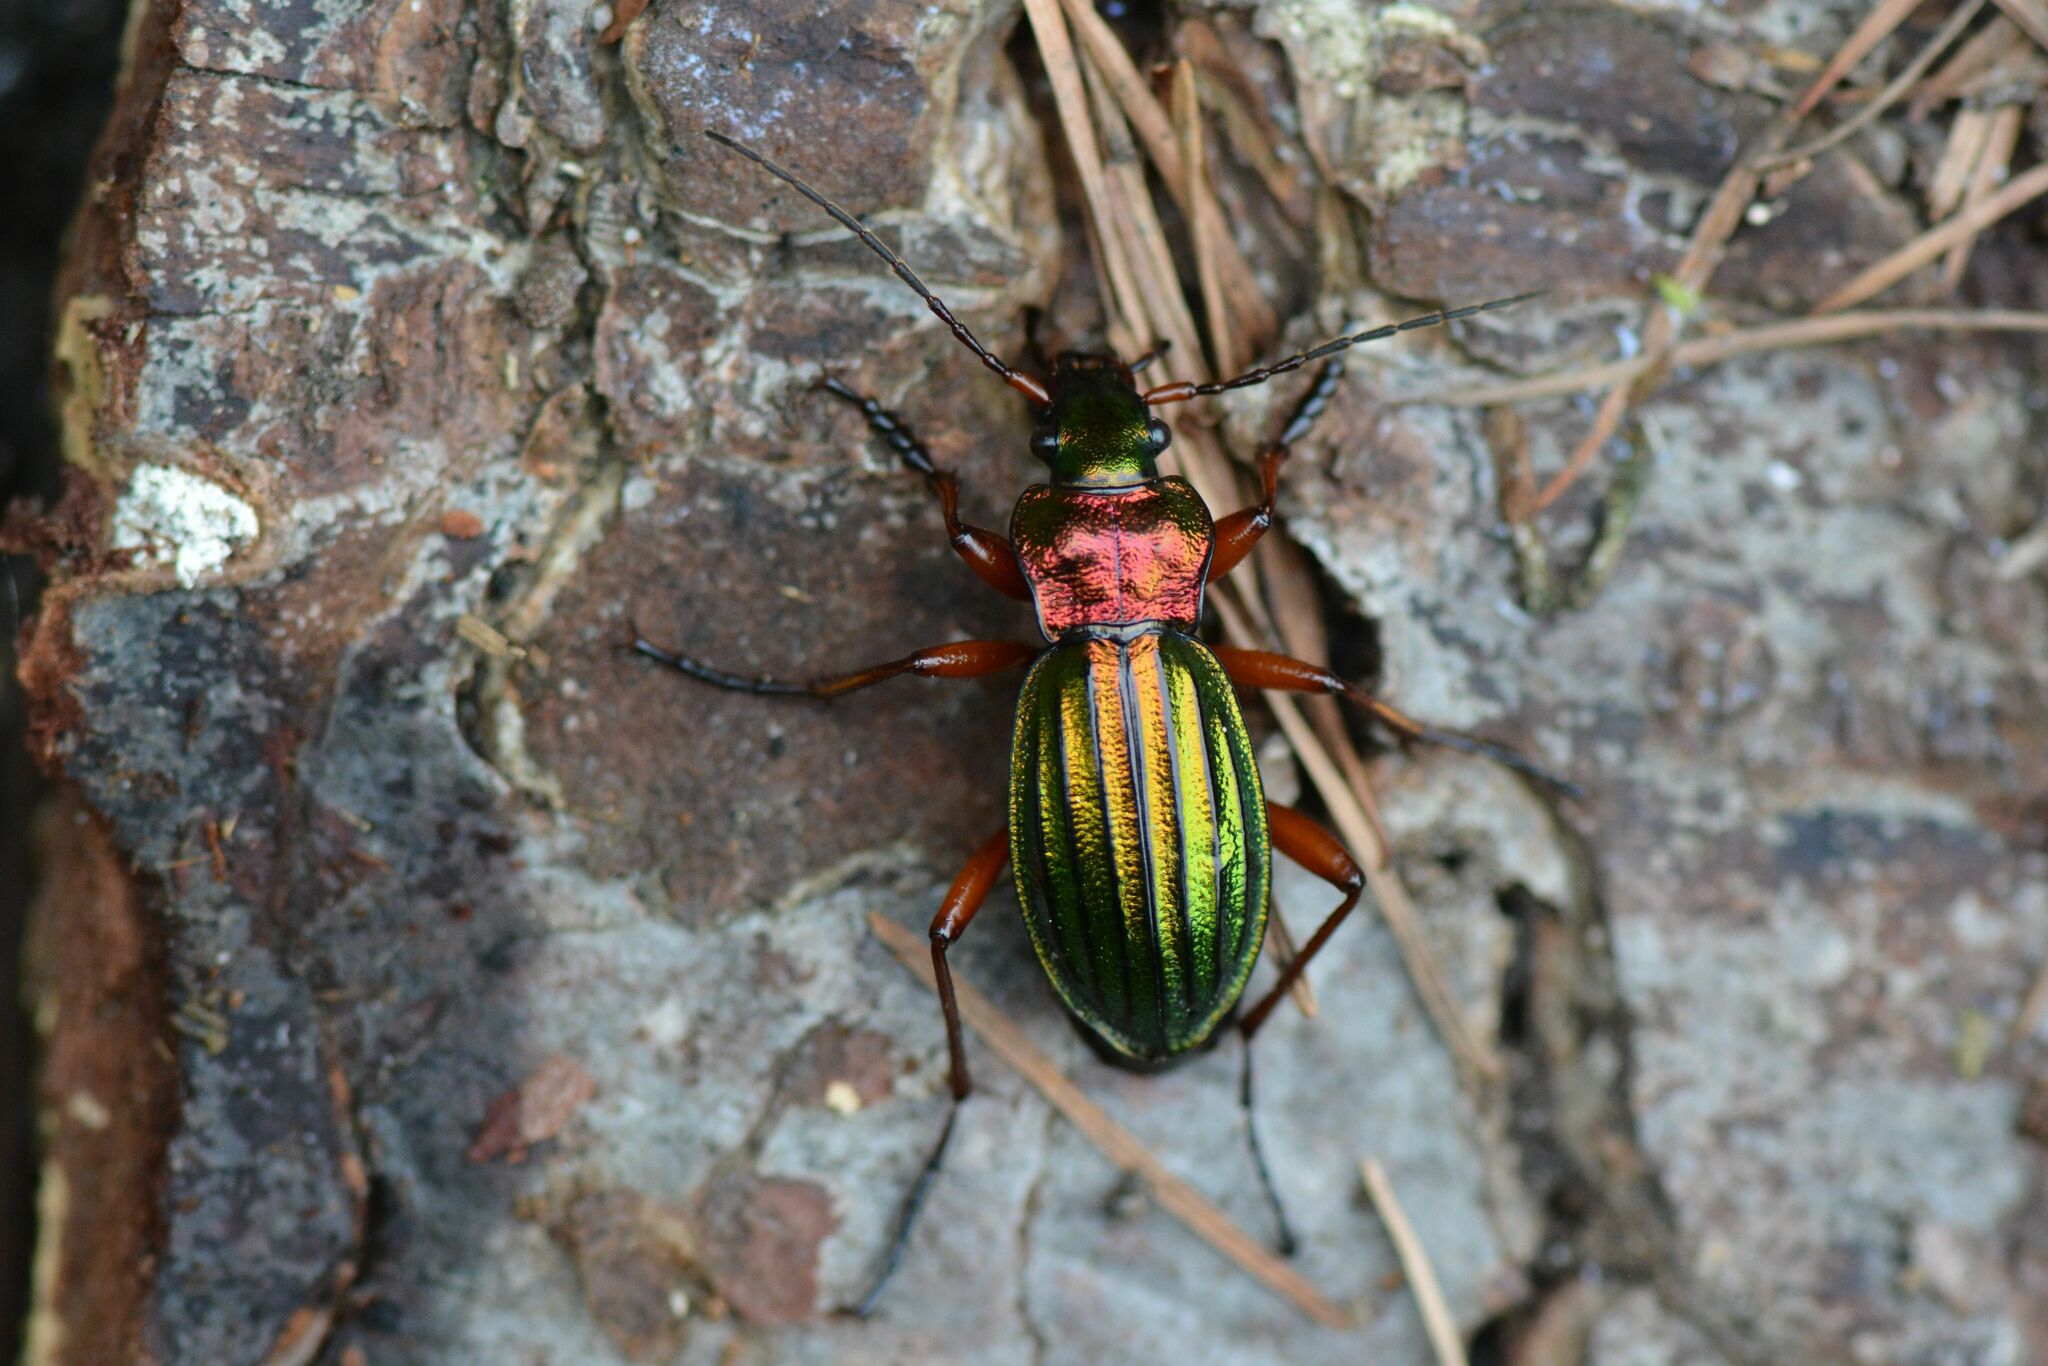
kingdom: Animalia
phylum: Arthropoda
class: Insecta
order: Coleoptera
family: Carabidae
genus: Carabus
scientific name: Carabus auronitens
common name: Carabus auronitens
